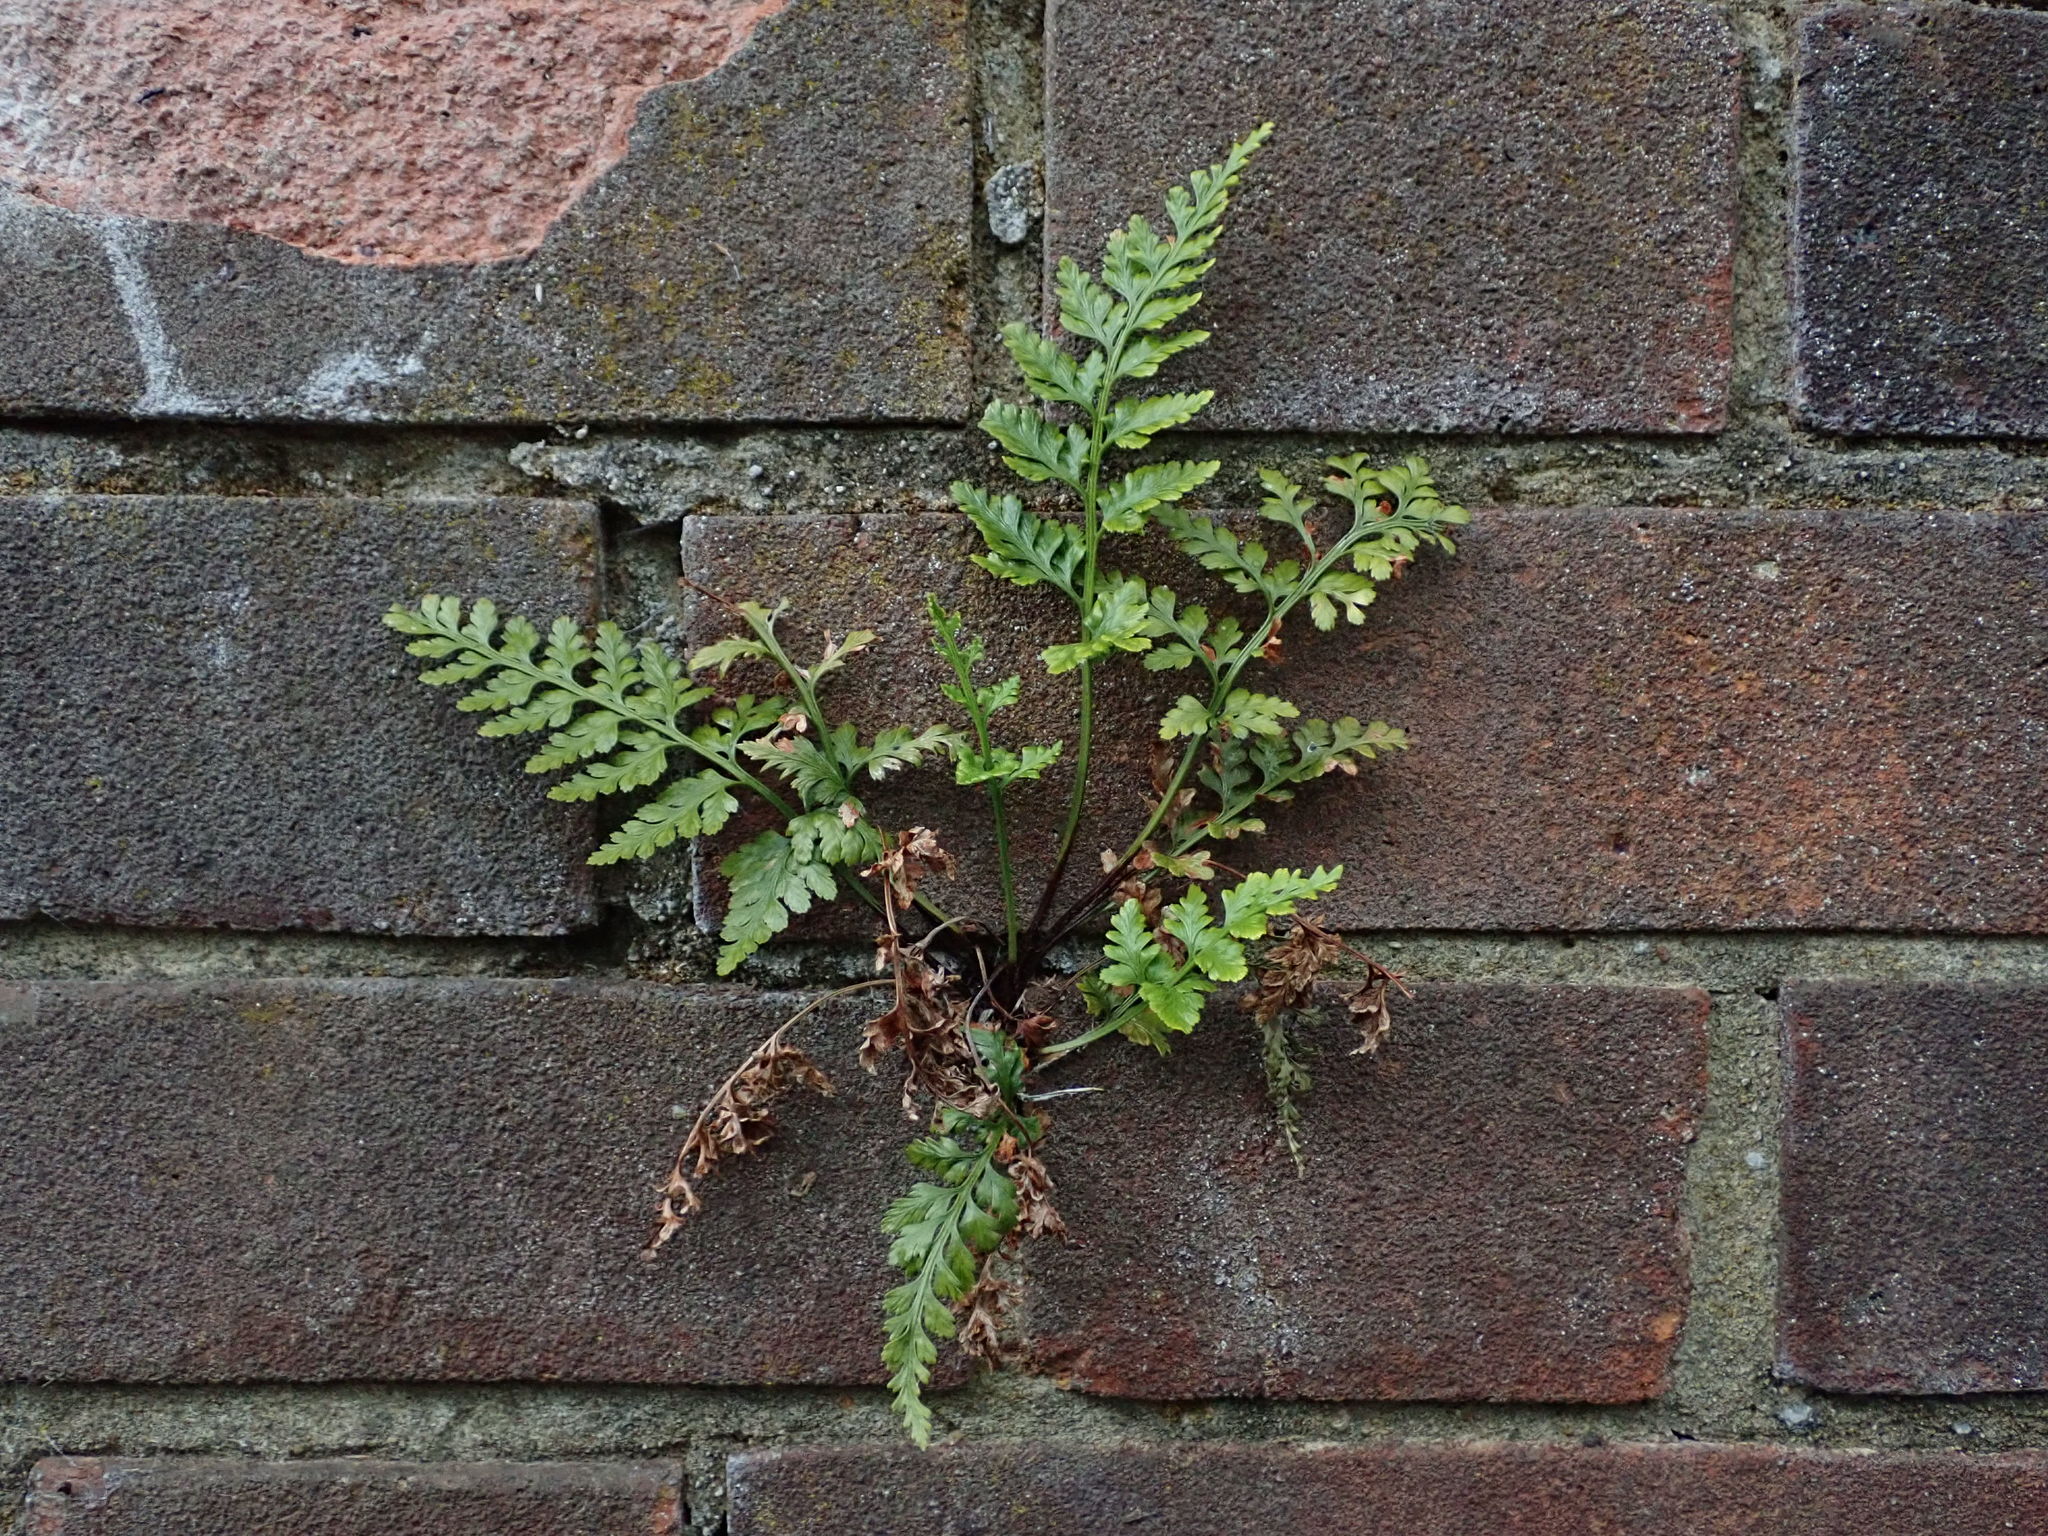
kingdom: Plantae
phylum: Tracheophyta
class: Polypodiopsida
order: Polypodiales
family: Aspleniaceae
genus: Asplenium
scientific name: Asplenium adiantum-nigrum
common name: Black spleenwort
